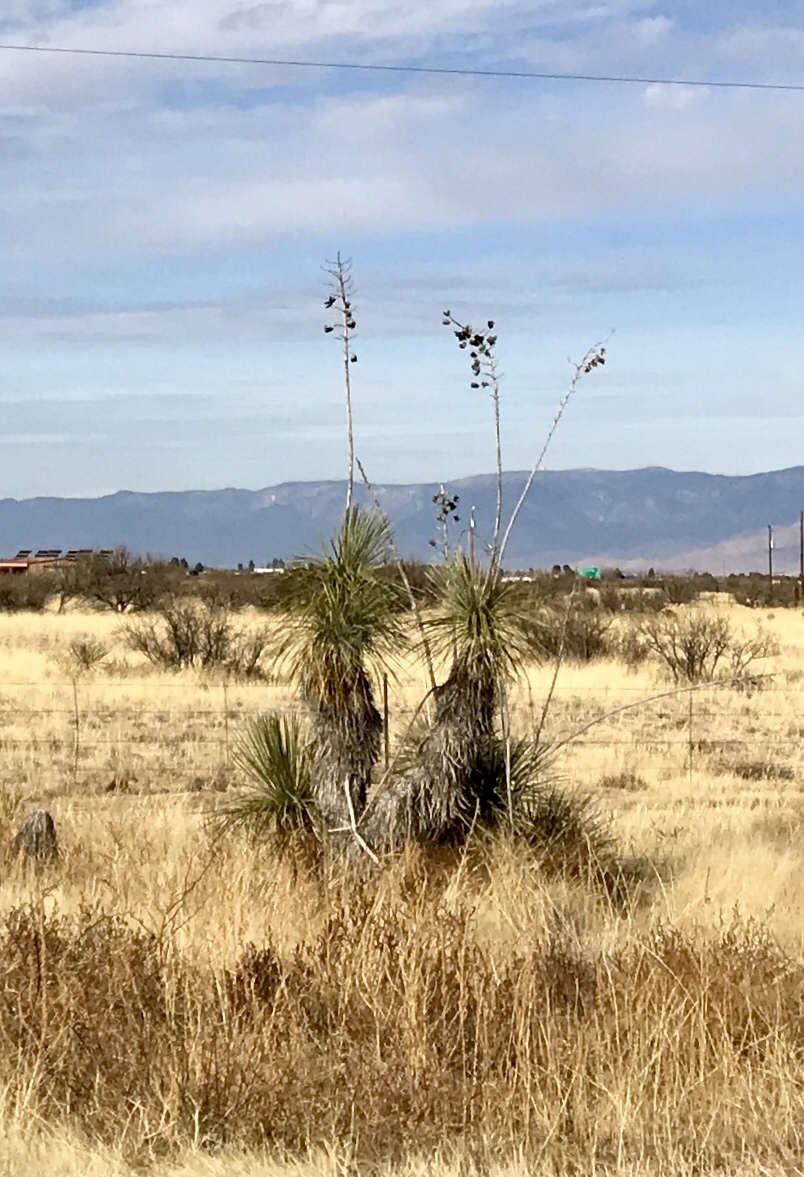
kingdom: Plantae
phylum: Tracheophyta
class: Liliopsida
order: Asparagales
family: Asparagaceae
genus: Yucca
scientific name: Yucca elata
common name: Palmella
